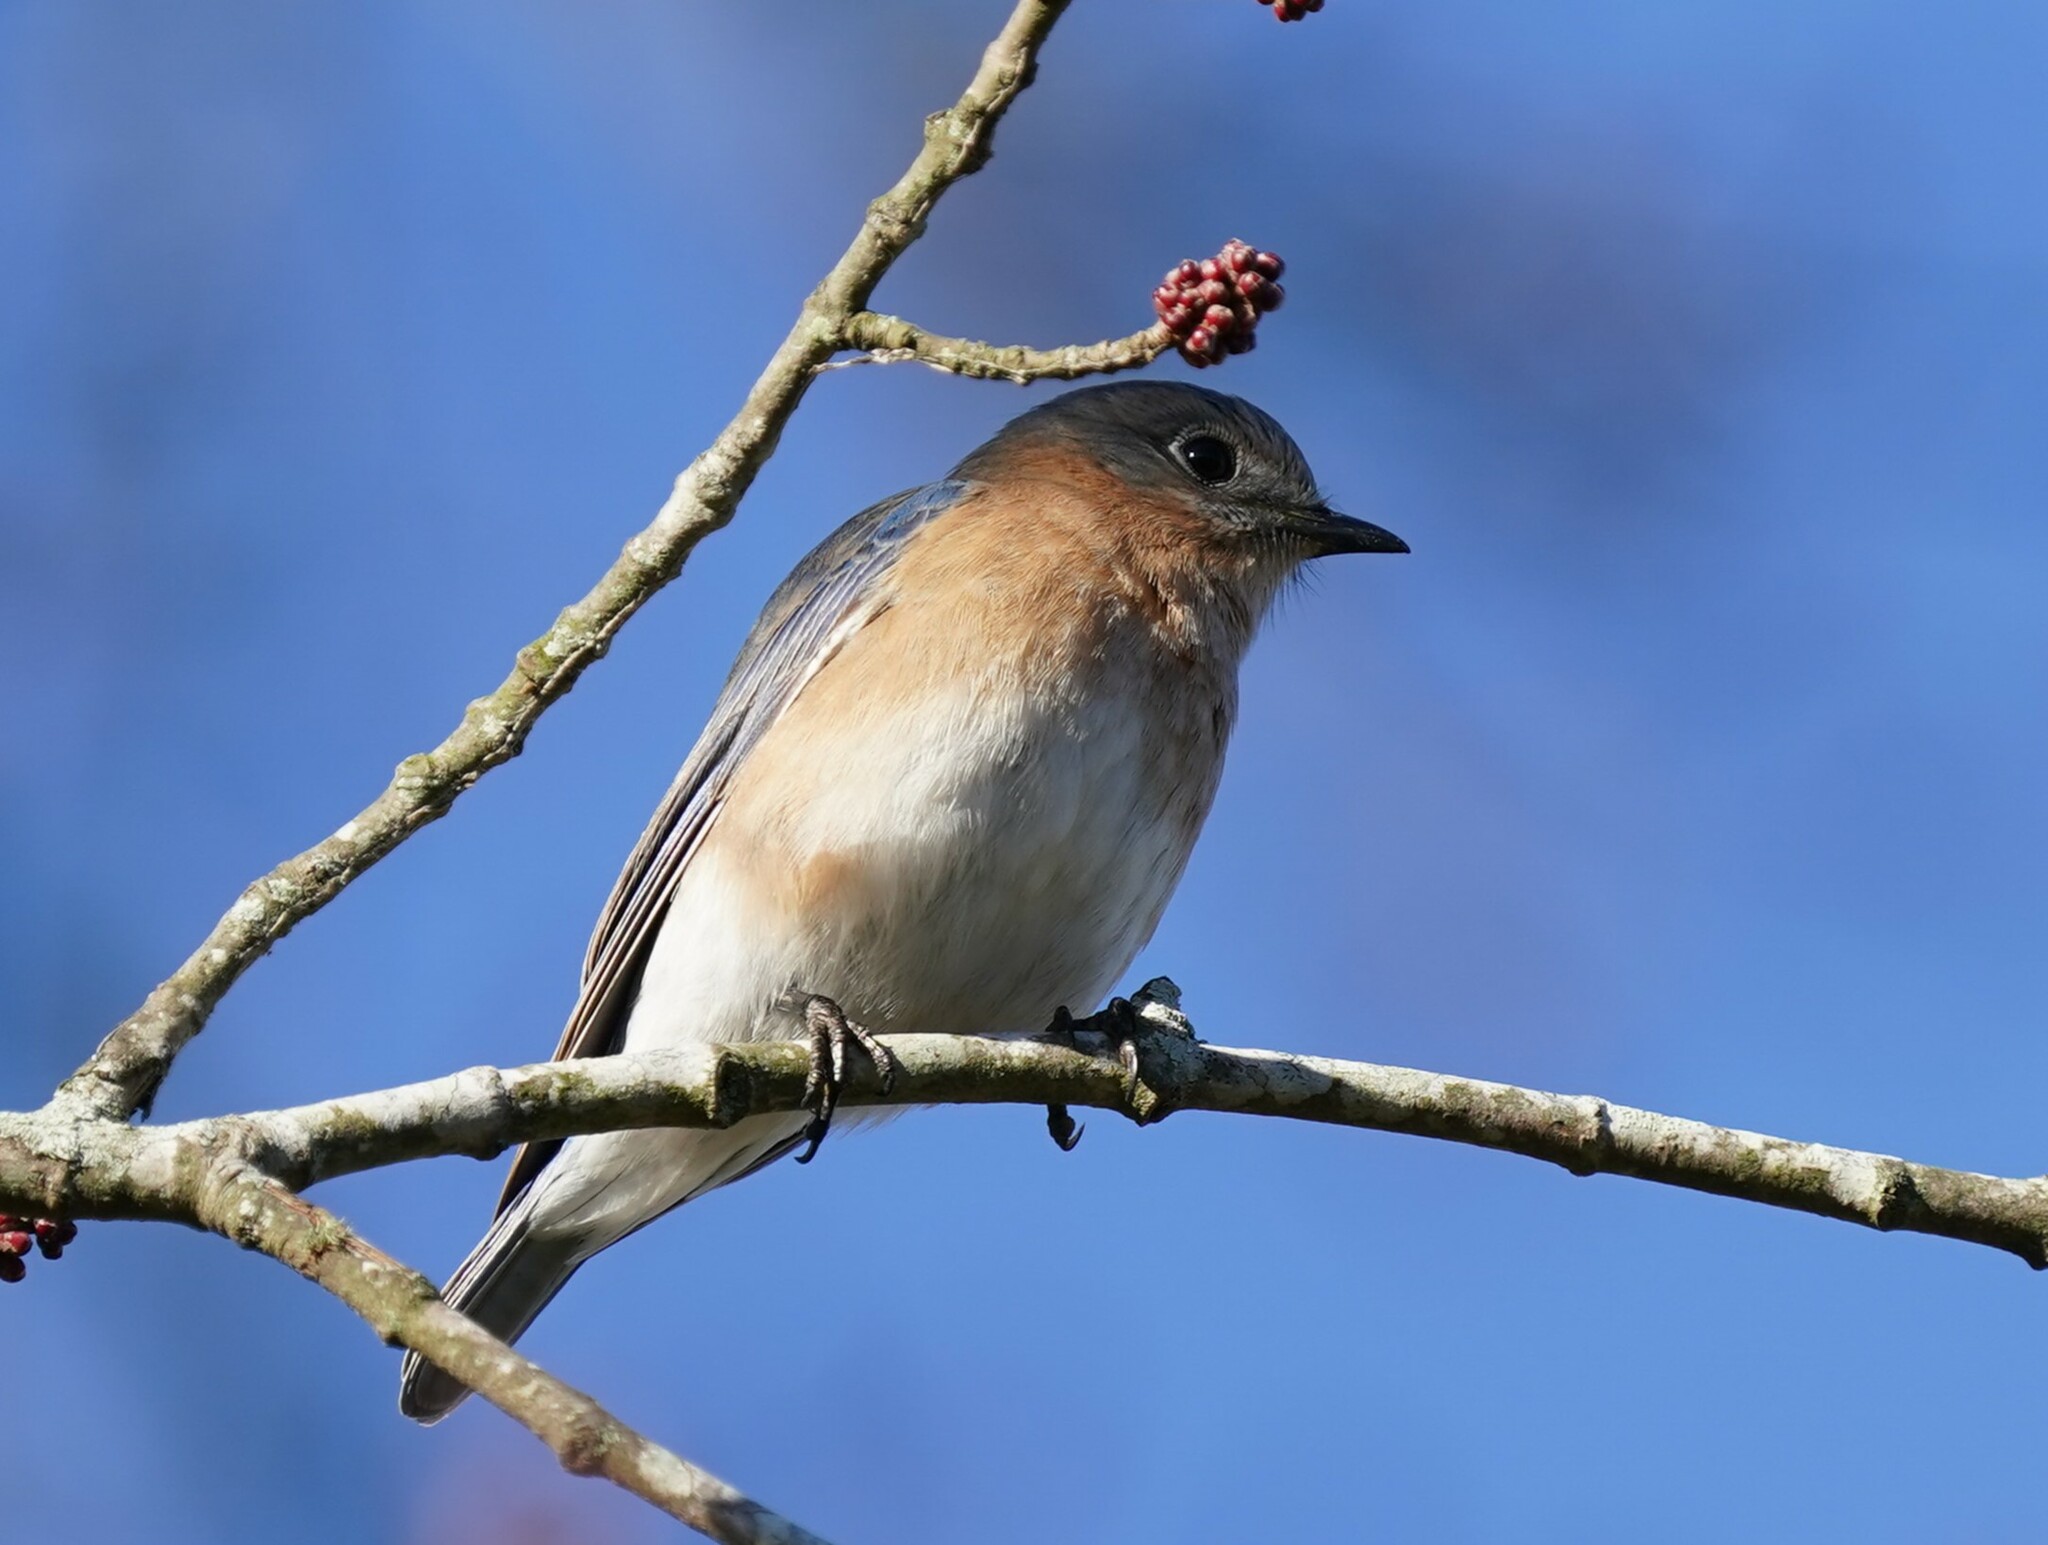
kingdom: Animalia
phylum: Chordata
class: Aves
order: Passeriformes
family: Turdidae
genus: Sialia
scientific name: Sialia sialis
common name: Eastern bluebird
